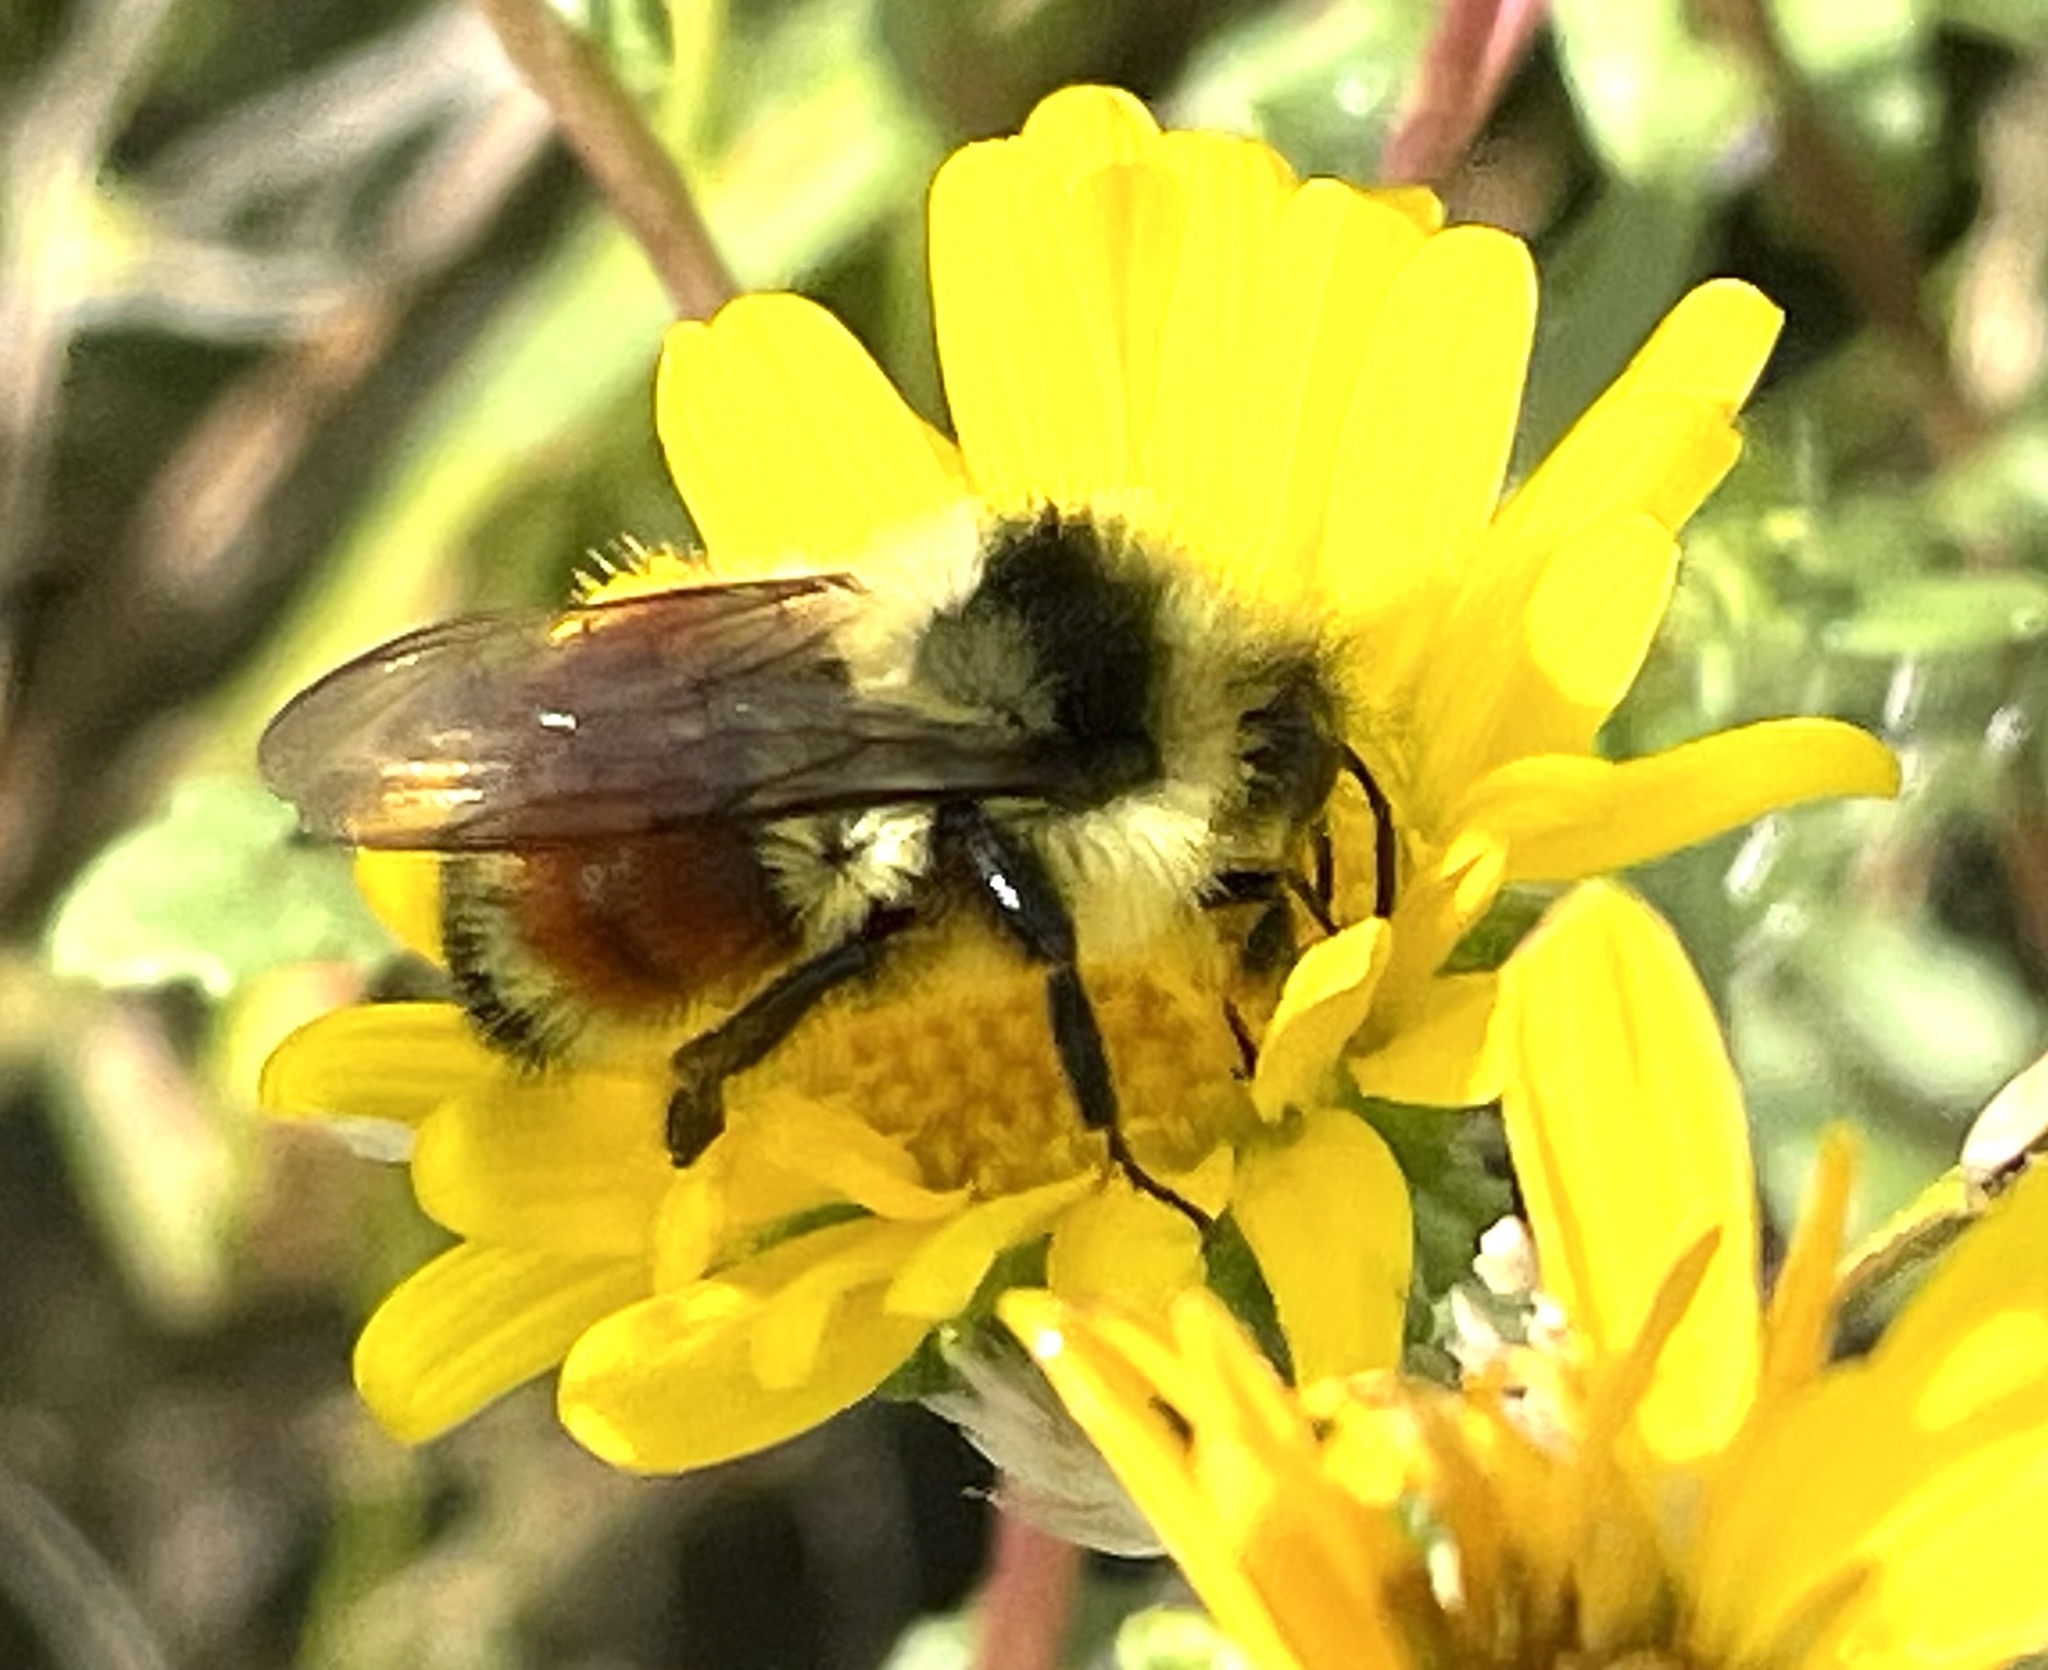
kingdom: Animalia
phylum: Arthropoda
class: Insecta
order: Hymenoptera
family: Apidae
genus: Bombus
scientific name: Bombus huntii
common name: Hunt bumble bee
